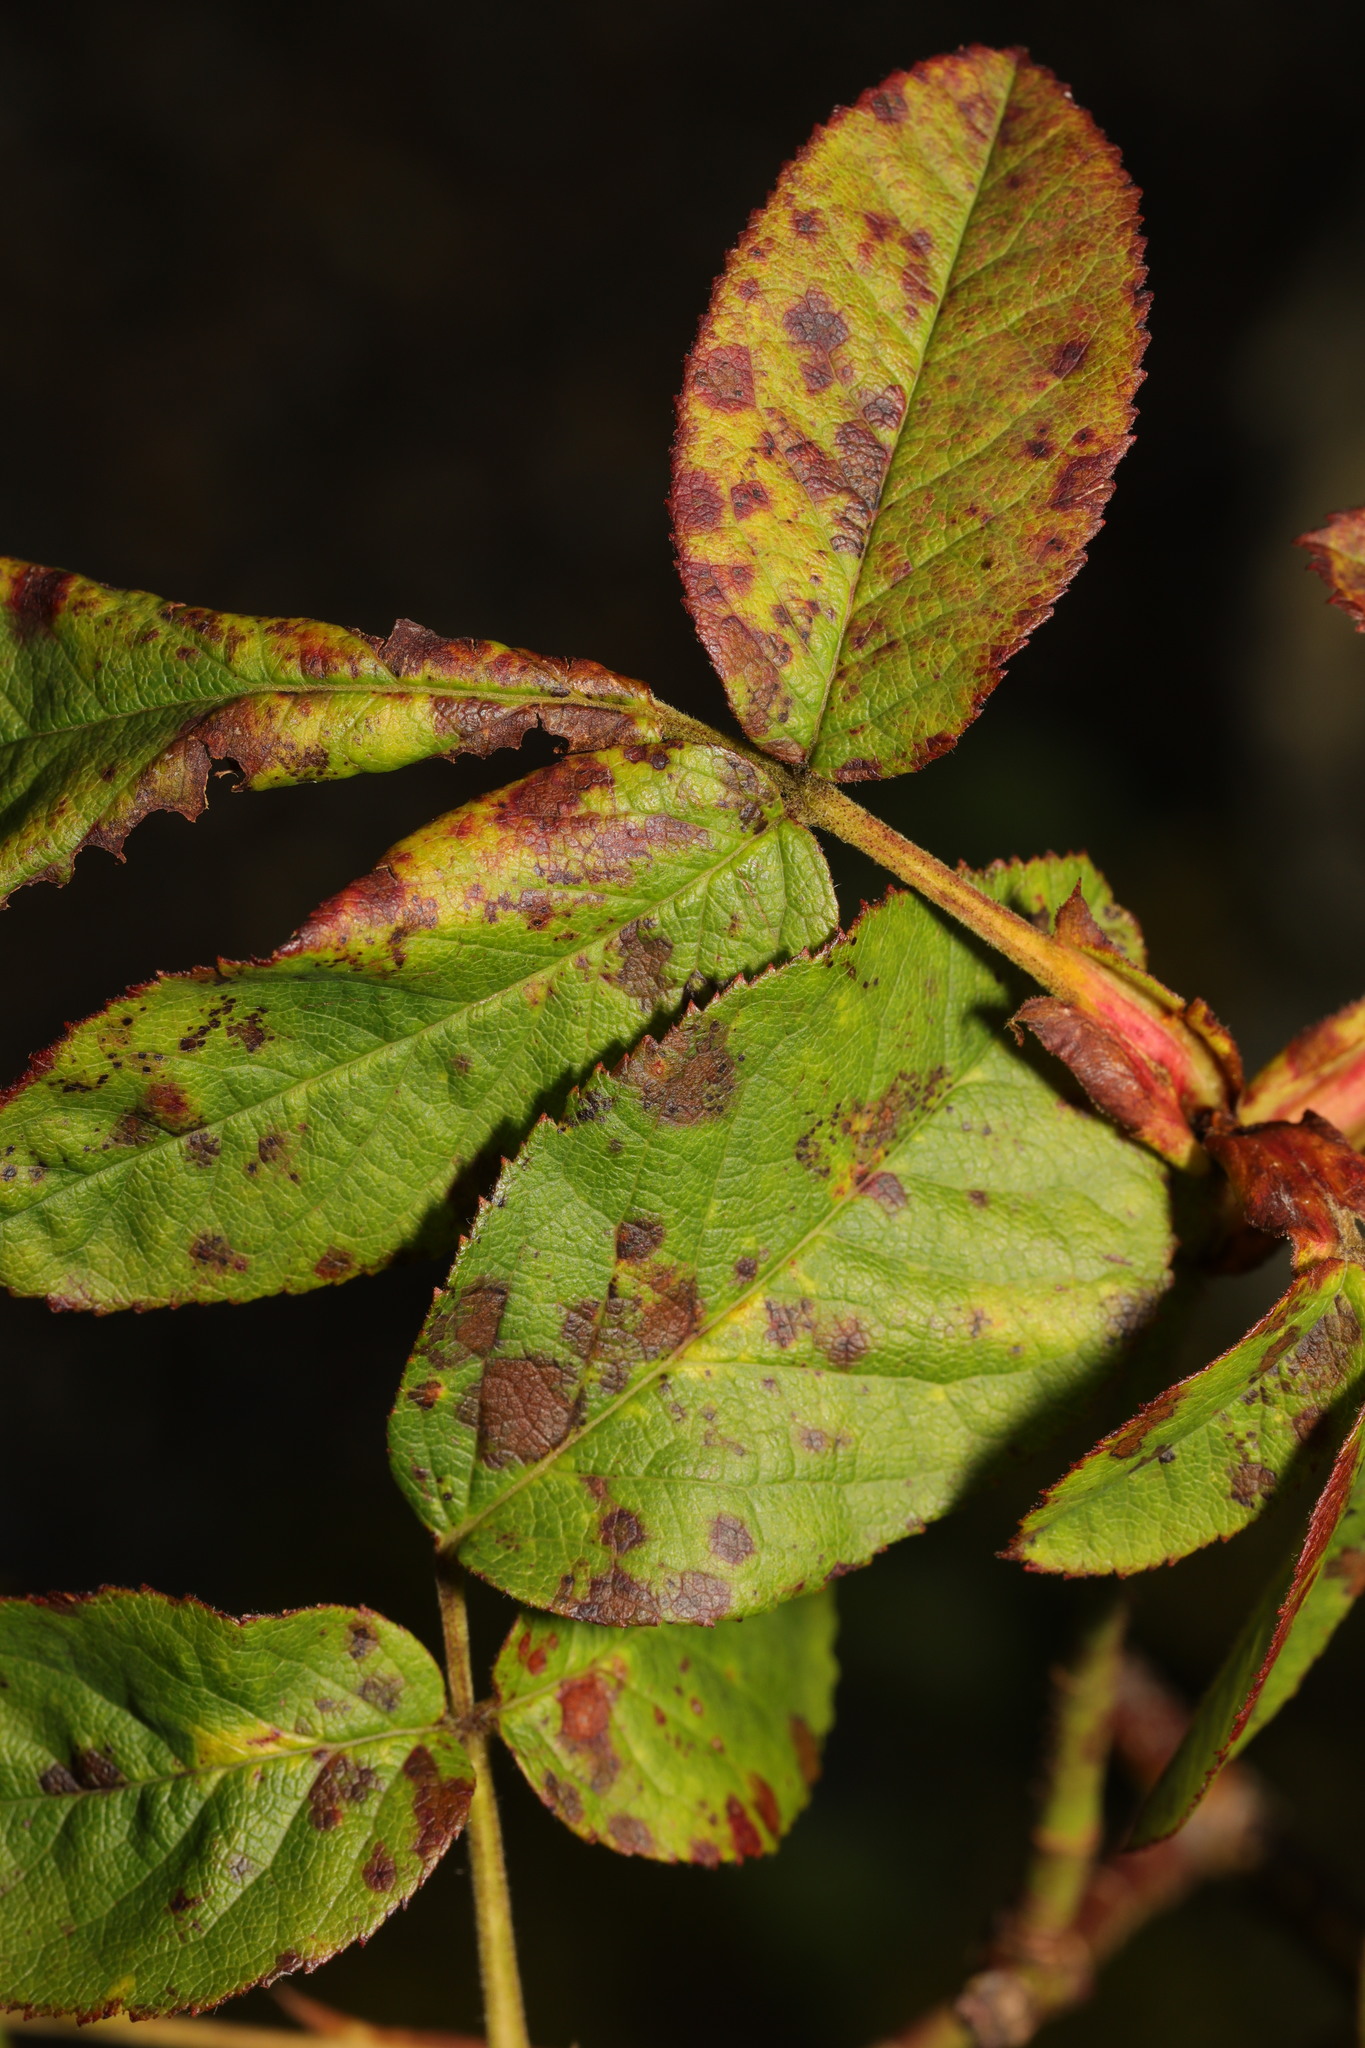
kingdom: Fungi
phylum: Ascomycota
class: Leotiomycetes
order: Helotiales
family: Drepanopezizaceae
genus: Diplocarpon
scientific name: Diplocarpon rosae
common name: Rose black-spot
